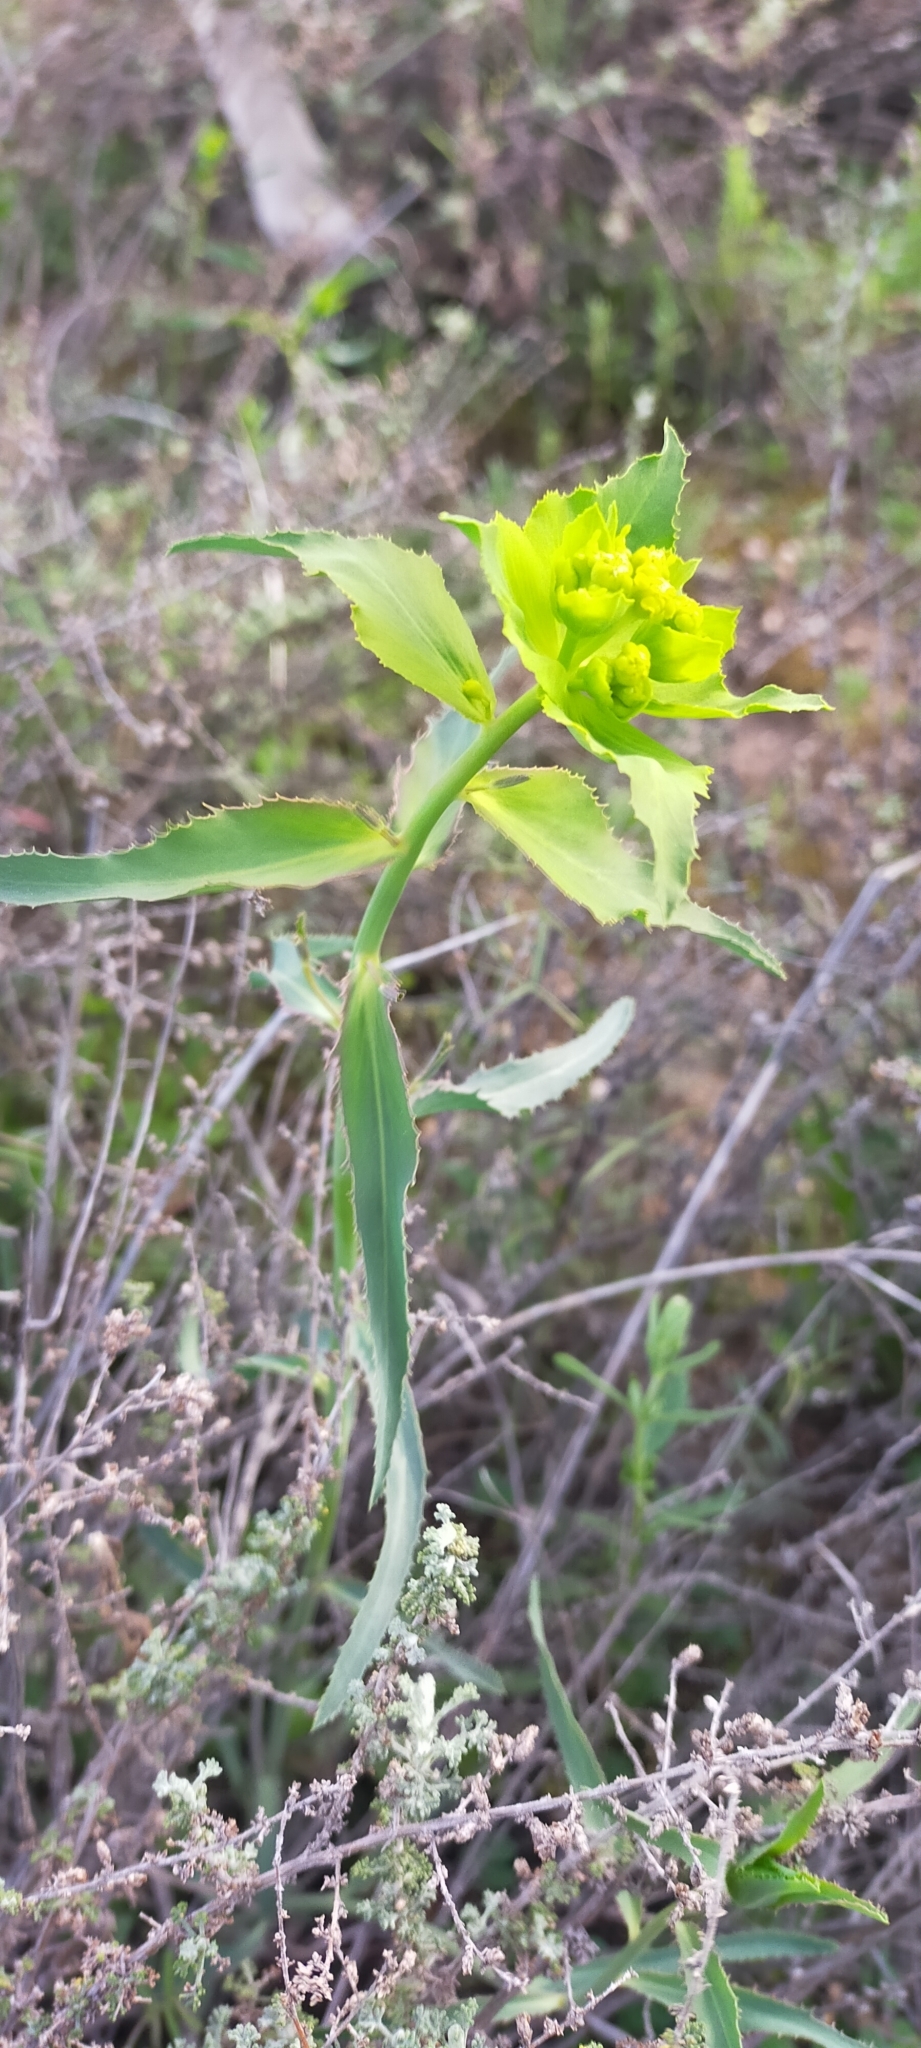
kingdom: Plantae
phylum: Tracheophyta
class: Magnoliopsida
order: Malpighiales
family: Euphorbiaceae
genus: Euphorbia
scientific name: Euphorbia serrata
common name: Serrate spurge
